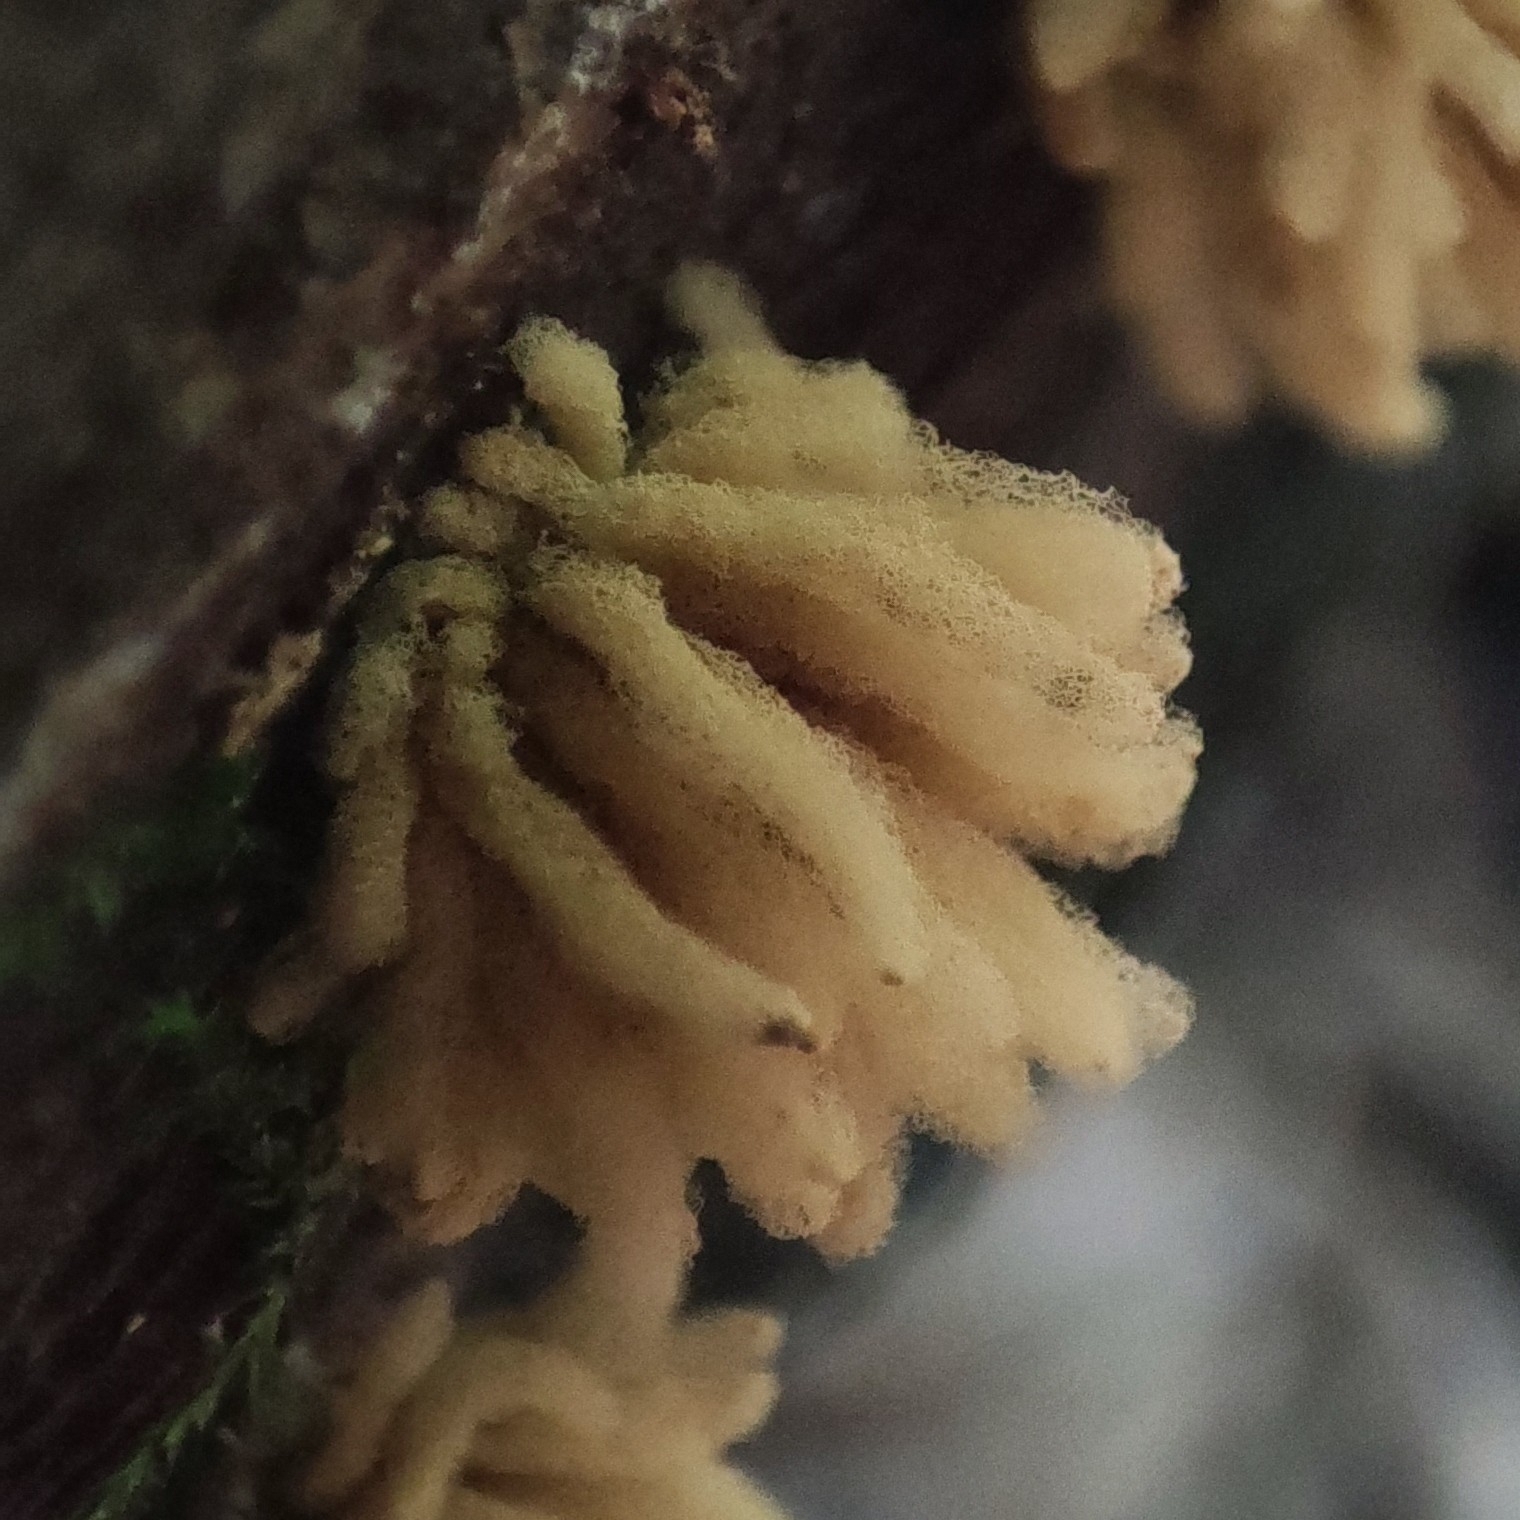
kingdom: Protozoa
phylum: Mycetozoa
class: Myxomycetes
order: Trichiales
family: Arcyriaceae
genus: Arcyria
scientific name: Arcyria obvelata
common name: Yellow carnival candy slime
